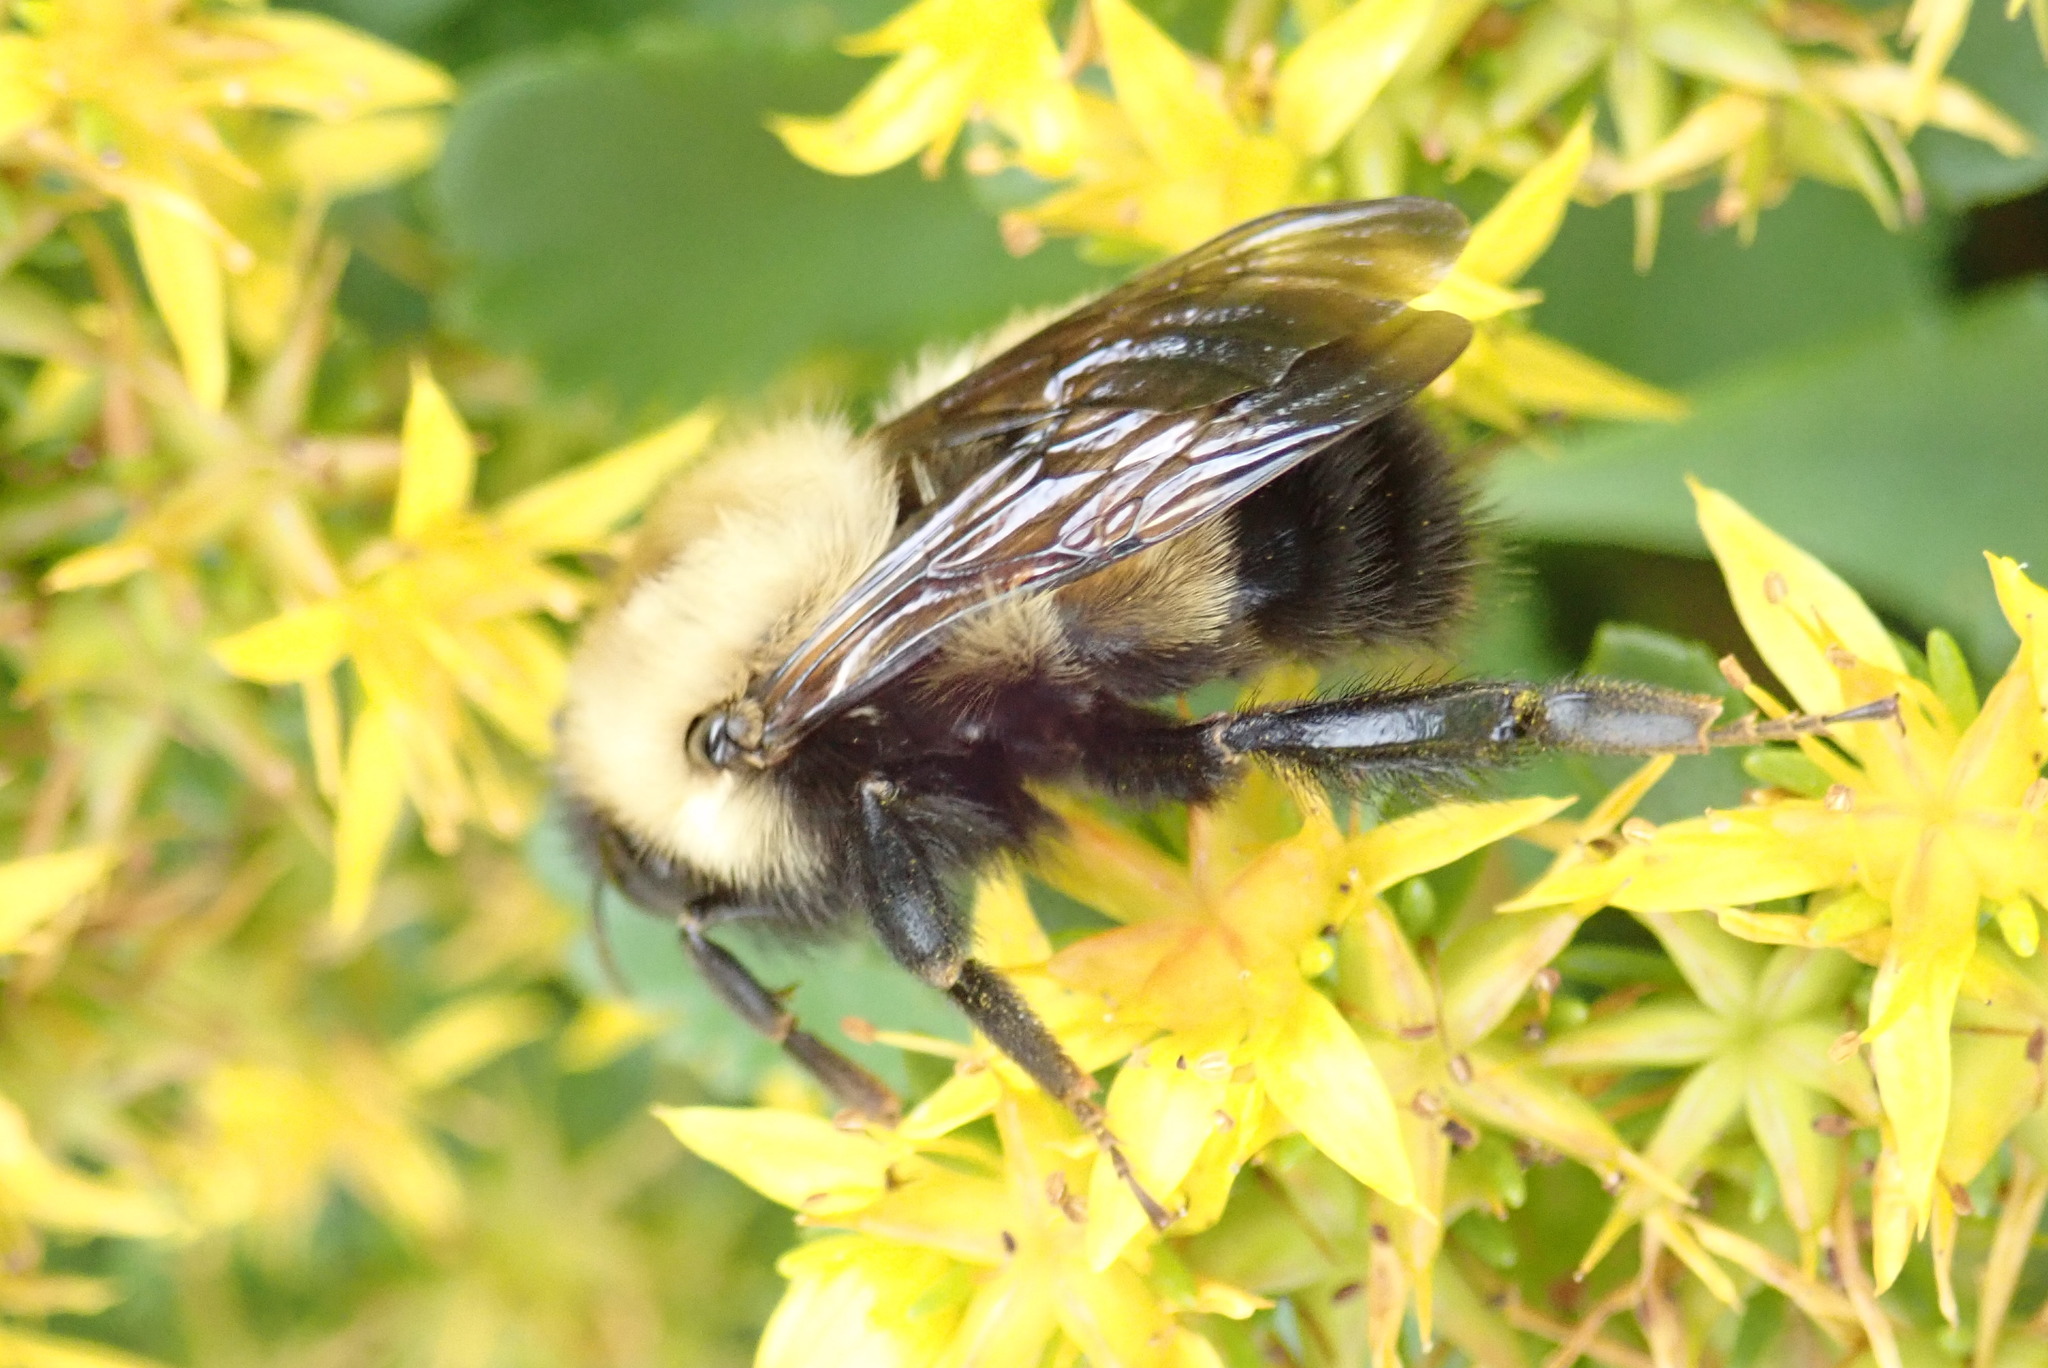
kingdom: Animalia
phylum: Arthropoda
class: Insecta
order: Hymenoptera
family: Apidae
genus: Bombus
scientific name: Bombus perplexus
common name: Confusing bumble bee
